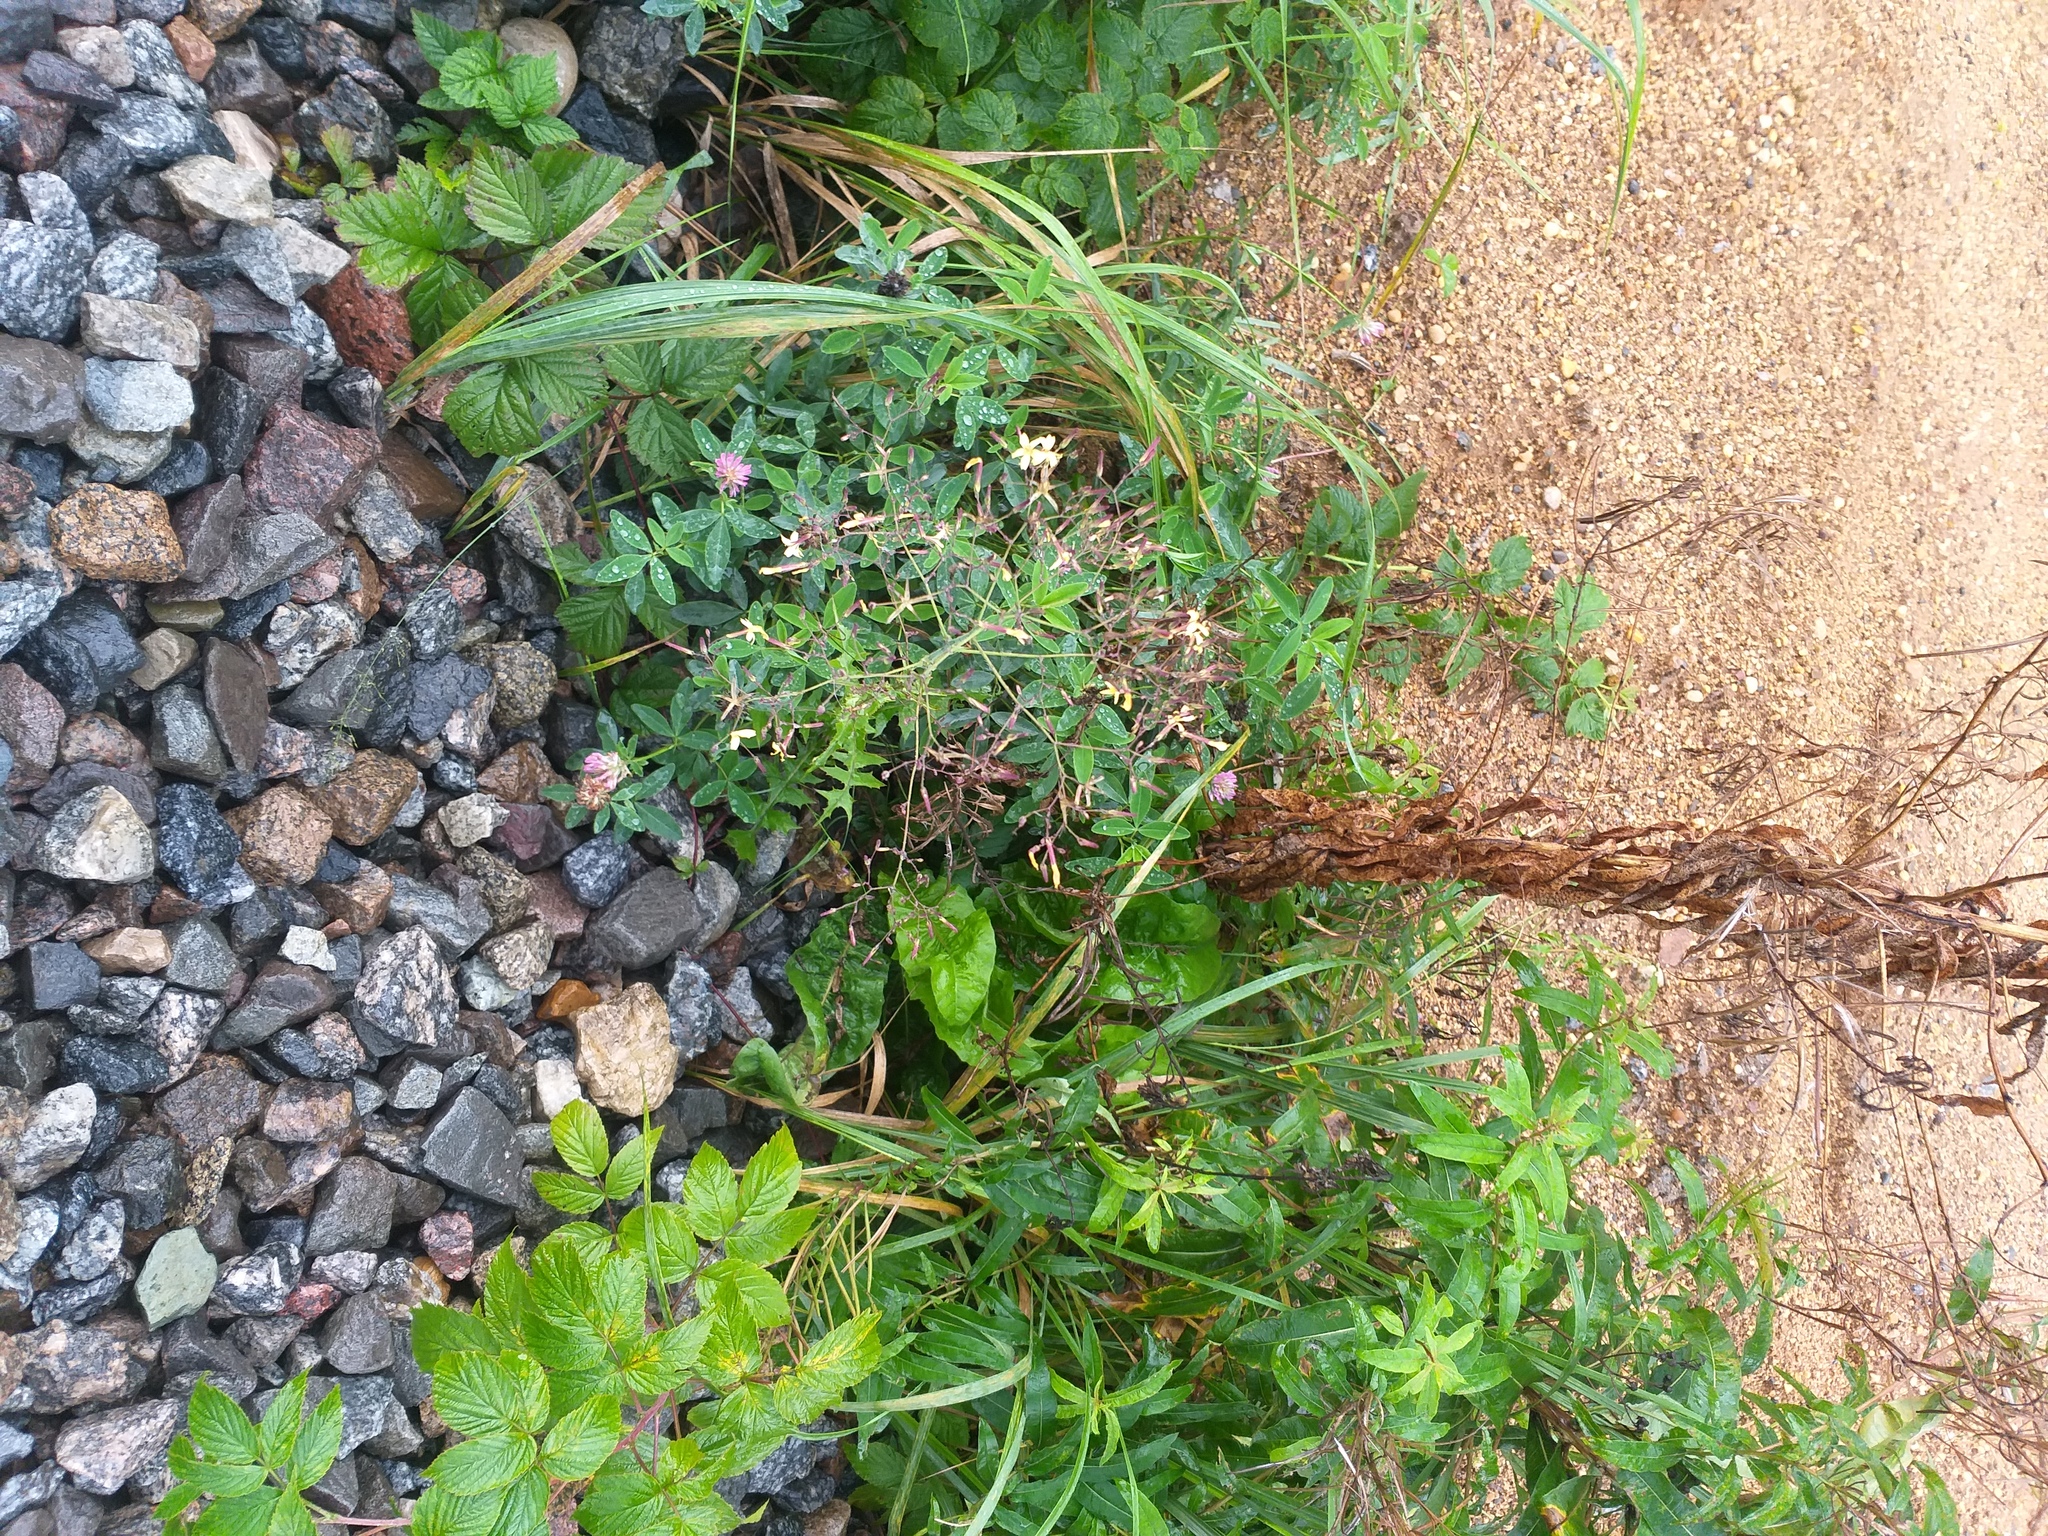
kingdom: Plantae
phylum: Tracheophyta
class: Magnoliopsida
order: Asterales
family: Asteraceae
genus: Mycelis
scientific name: Mycelis muralis
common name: Wall lettuce
